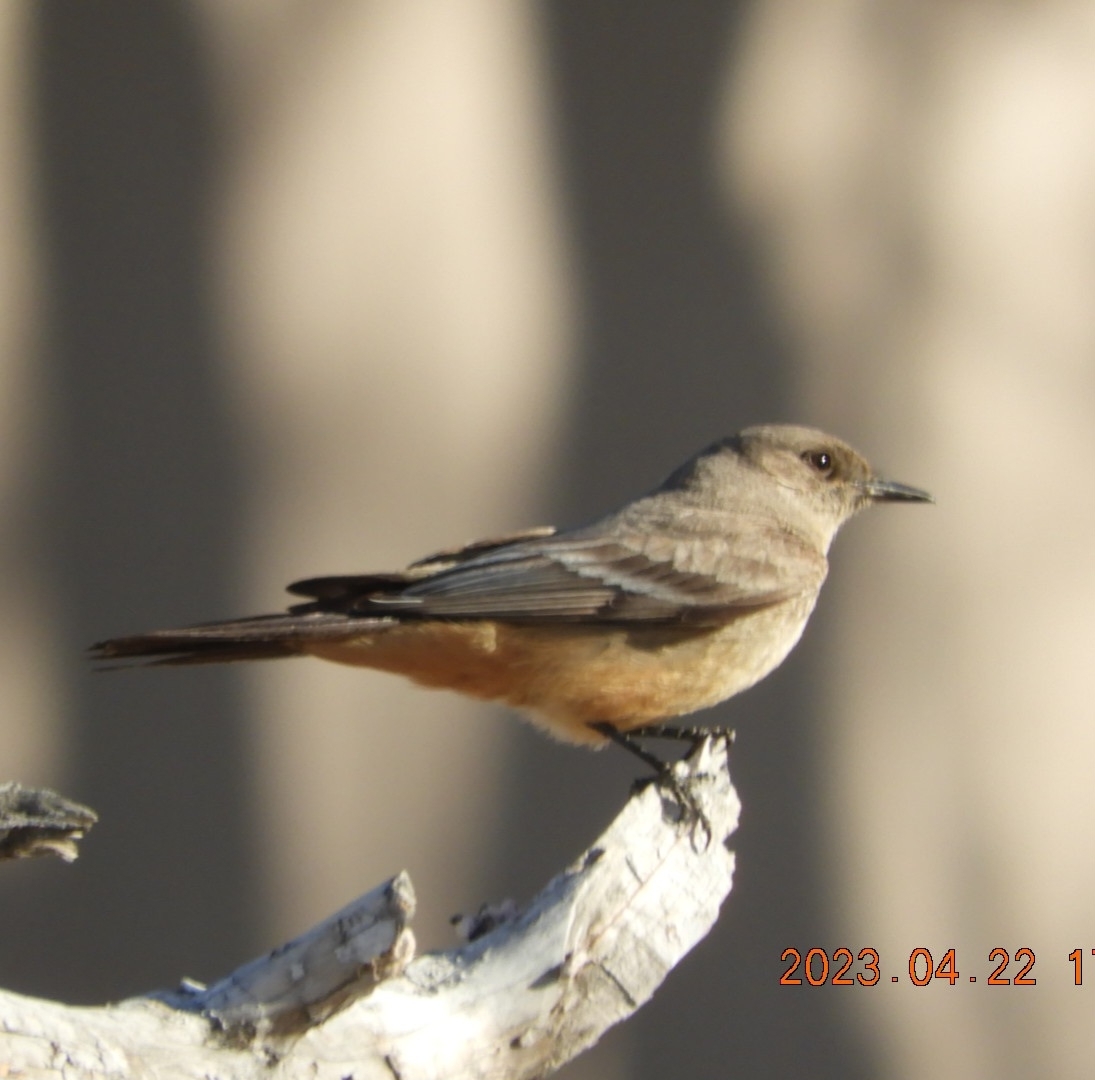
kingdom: Animalia
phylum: Chordata
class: Aves
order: Passeriformes
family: Tyrannidae
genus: Sayornis
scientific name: Sayornis saya
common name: Say's phoebe
